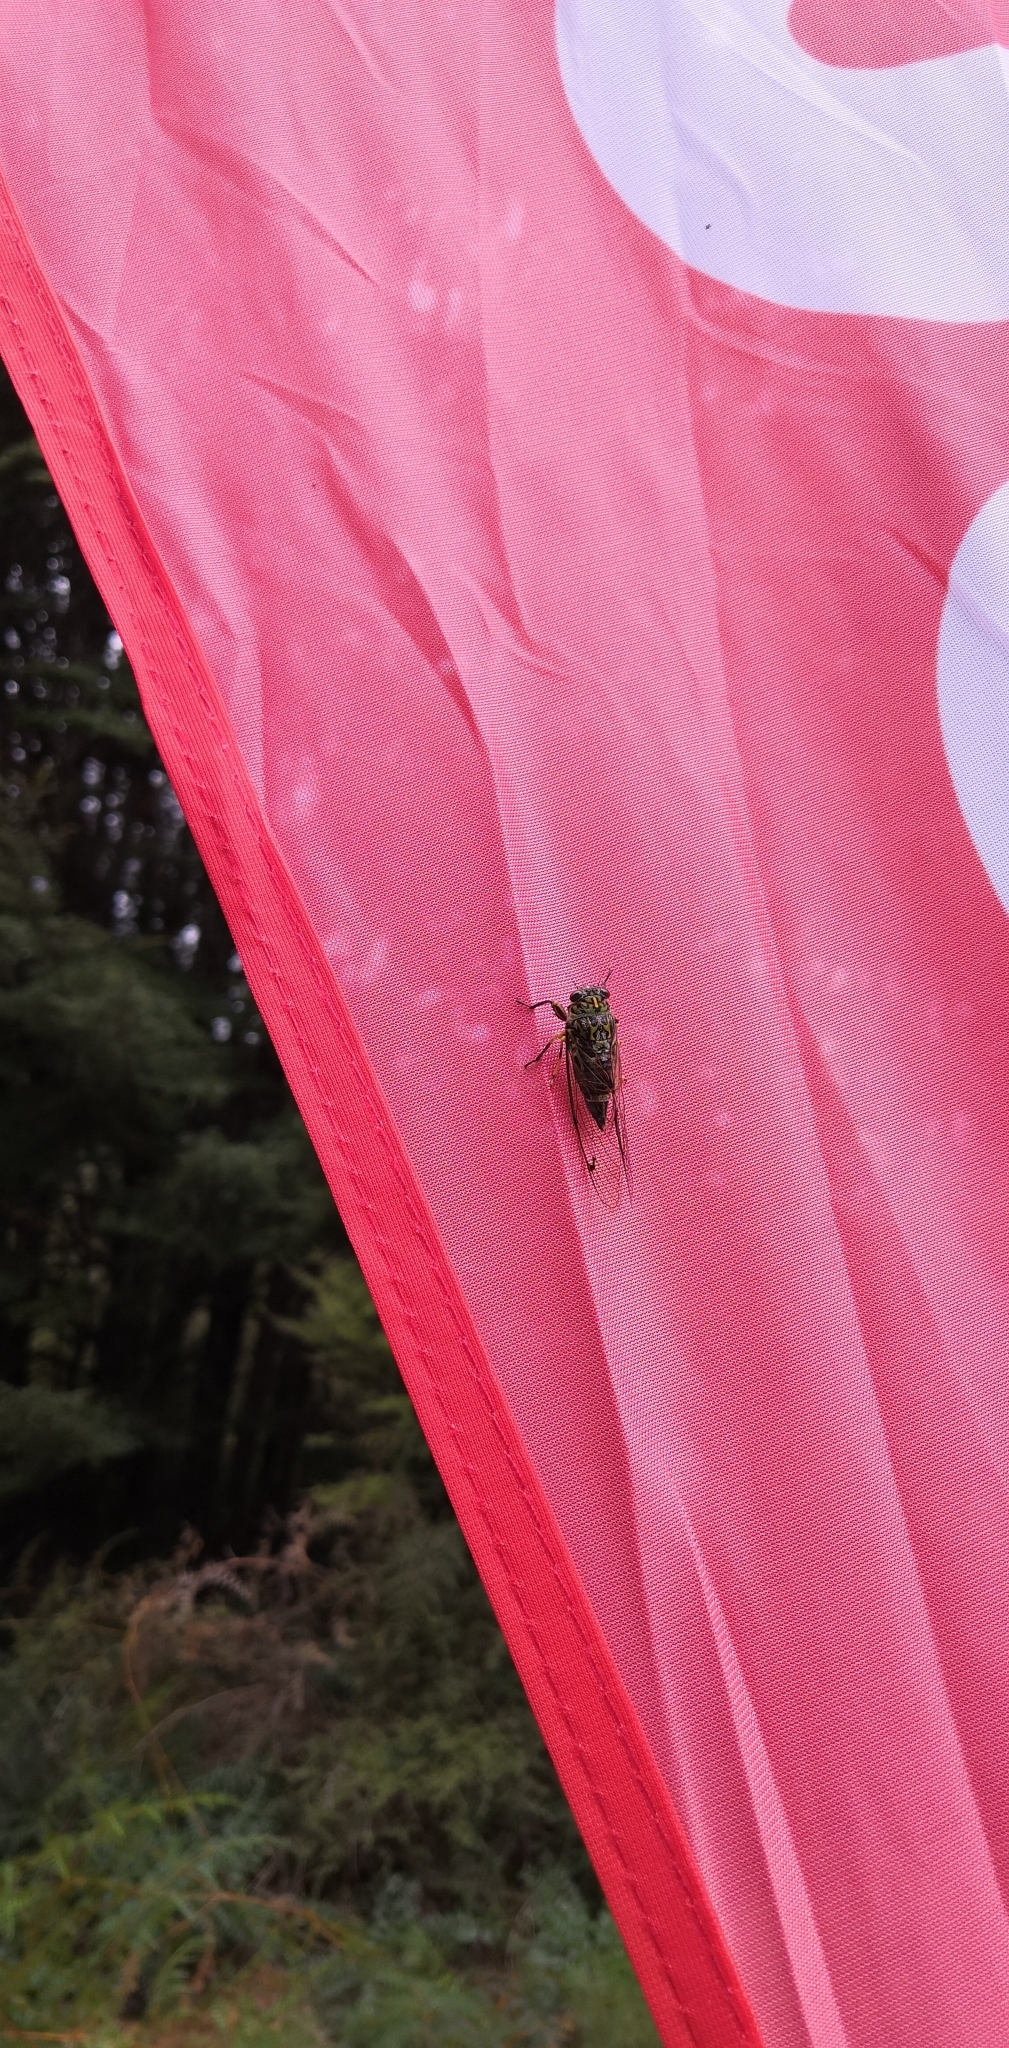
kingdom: Animalia
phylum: Arthropoda
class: Insecta
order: Hemiptera
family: Cicadidae
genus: Amphipsalta
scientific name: Amphipsalta zelandica
